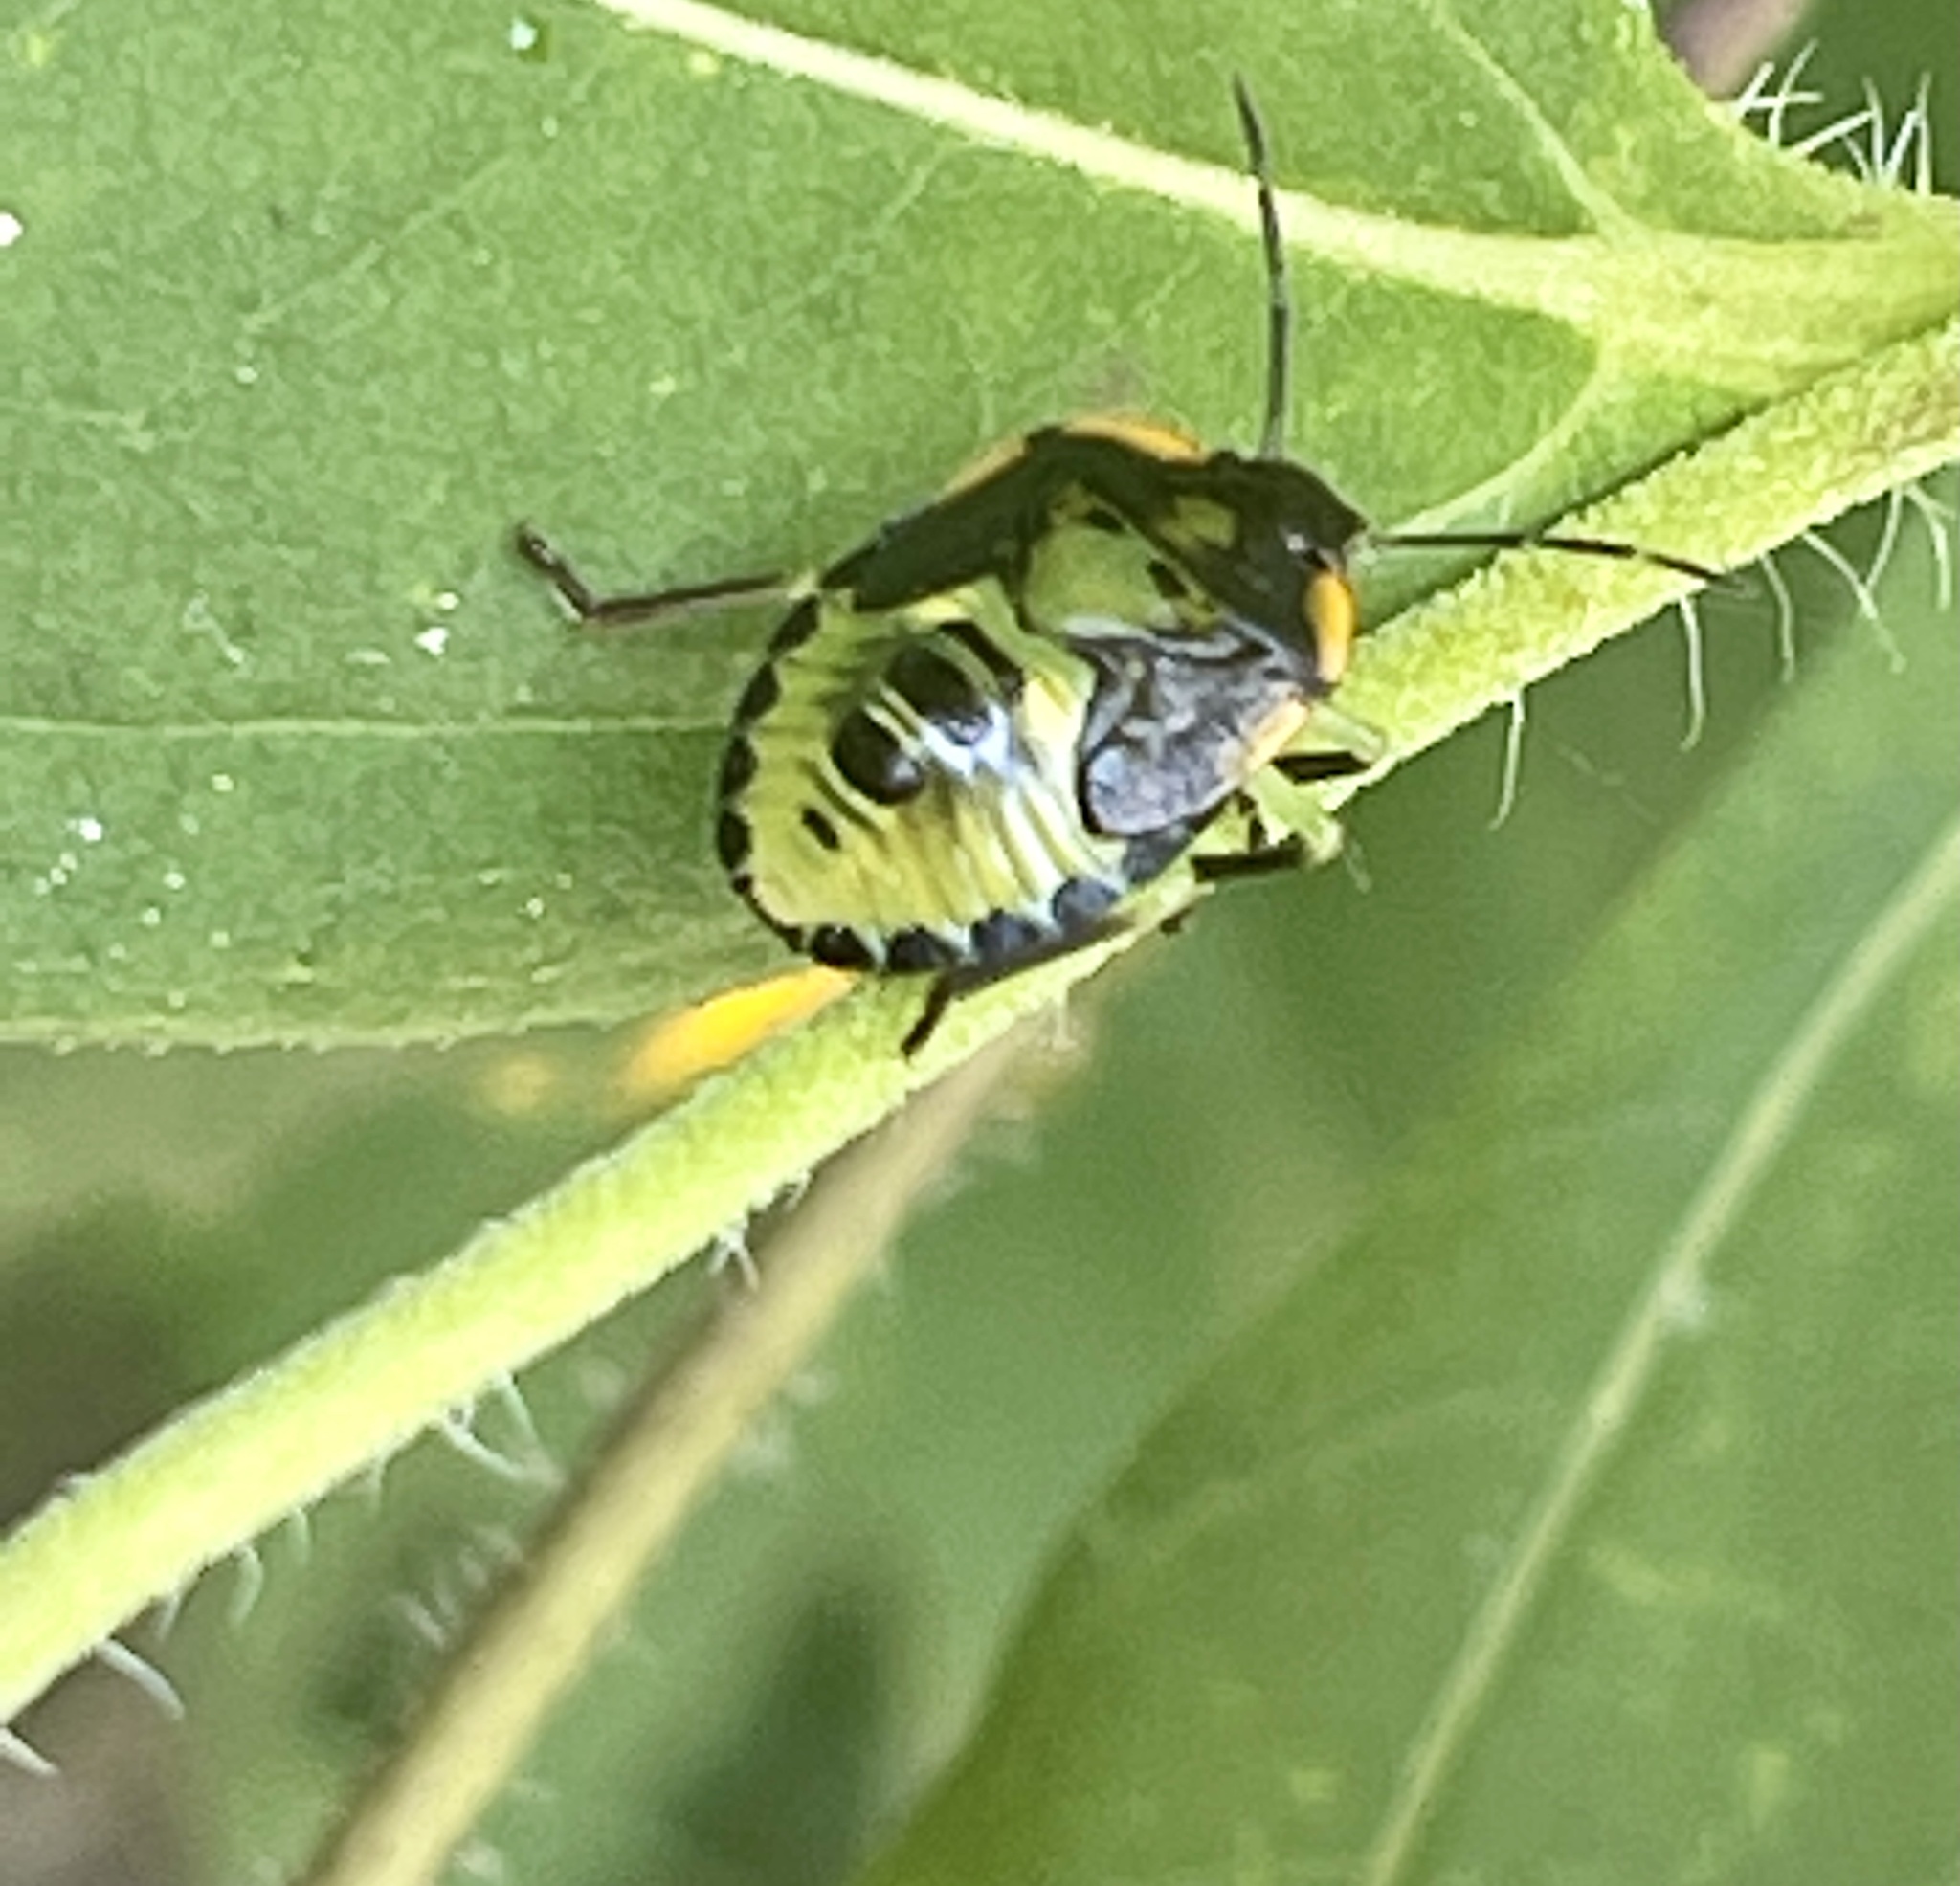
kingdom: Animalia
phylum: Arthropoda
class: Insecta
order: Hemiptera
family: Pentatomidae
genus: Chinavia
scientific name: Chinavia hilaris
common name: Green stink bug
